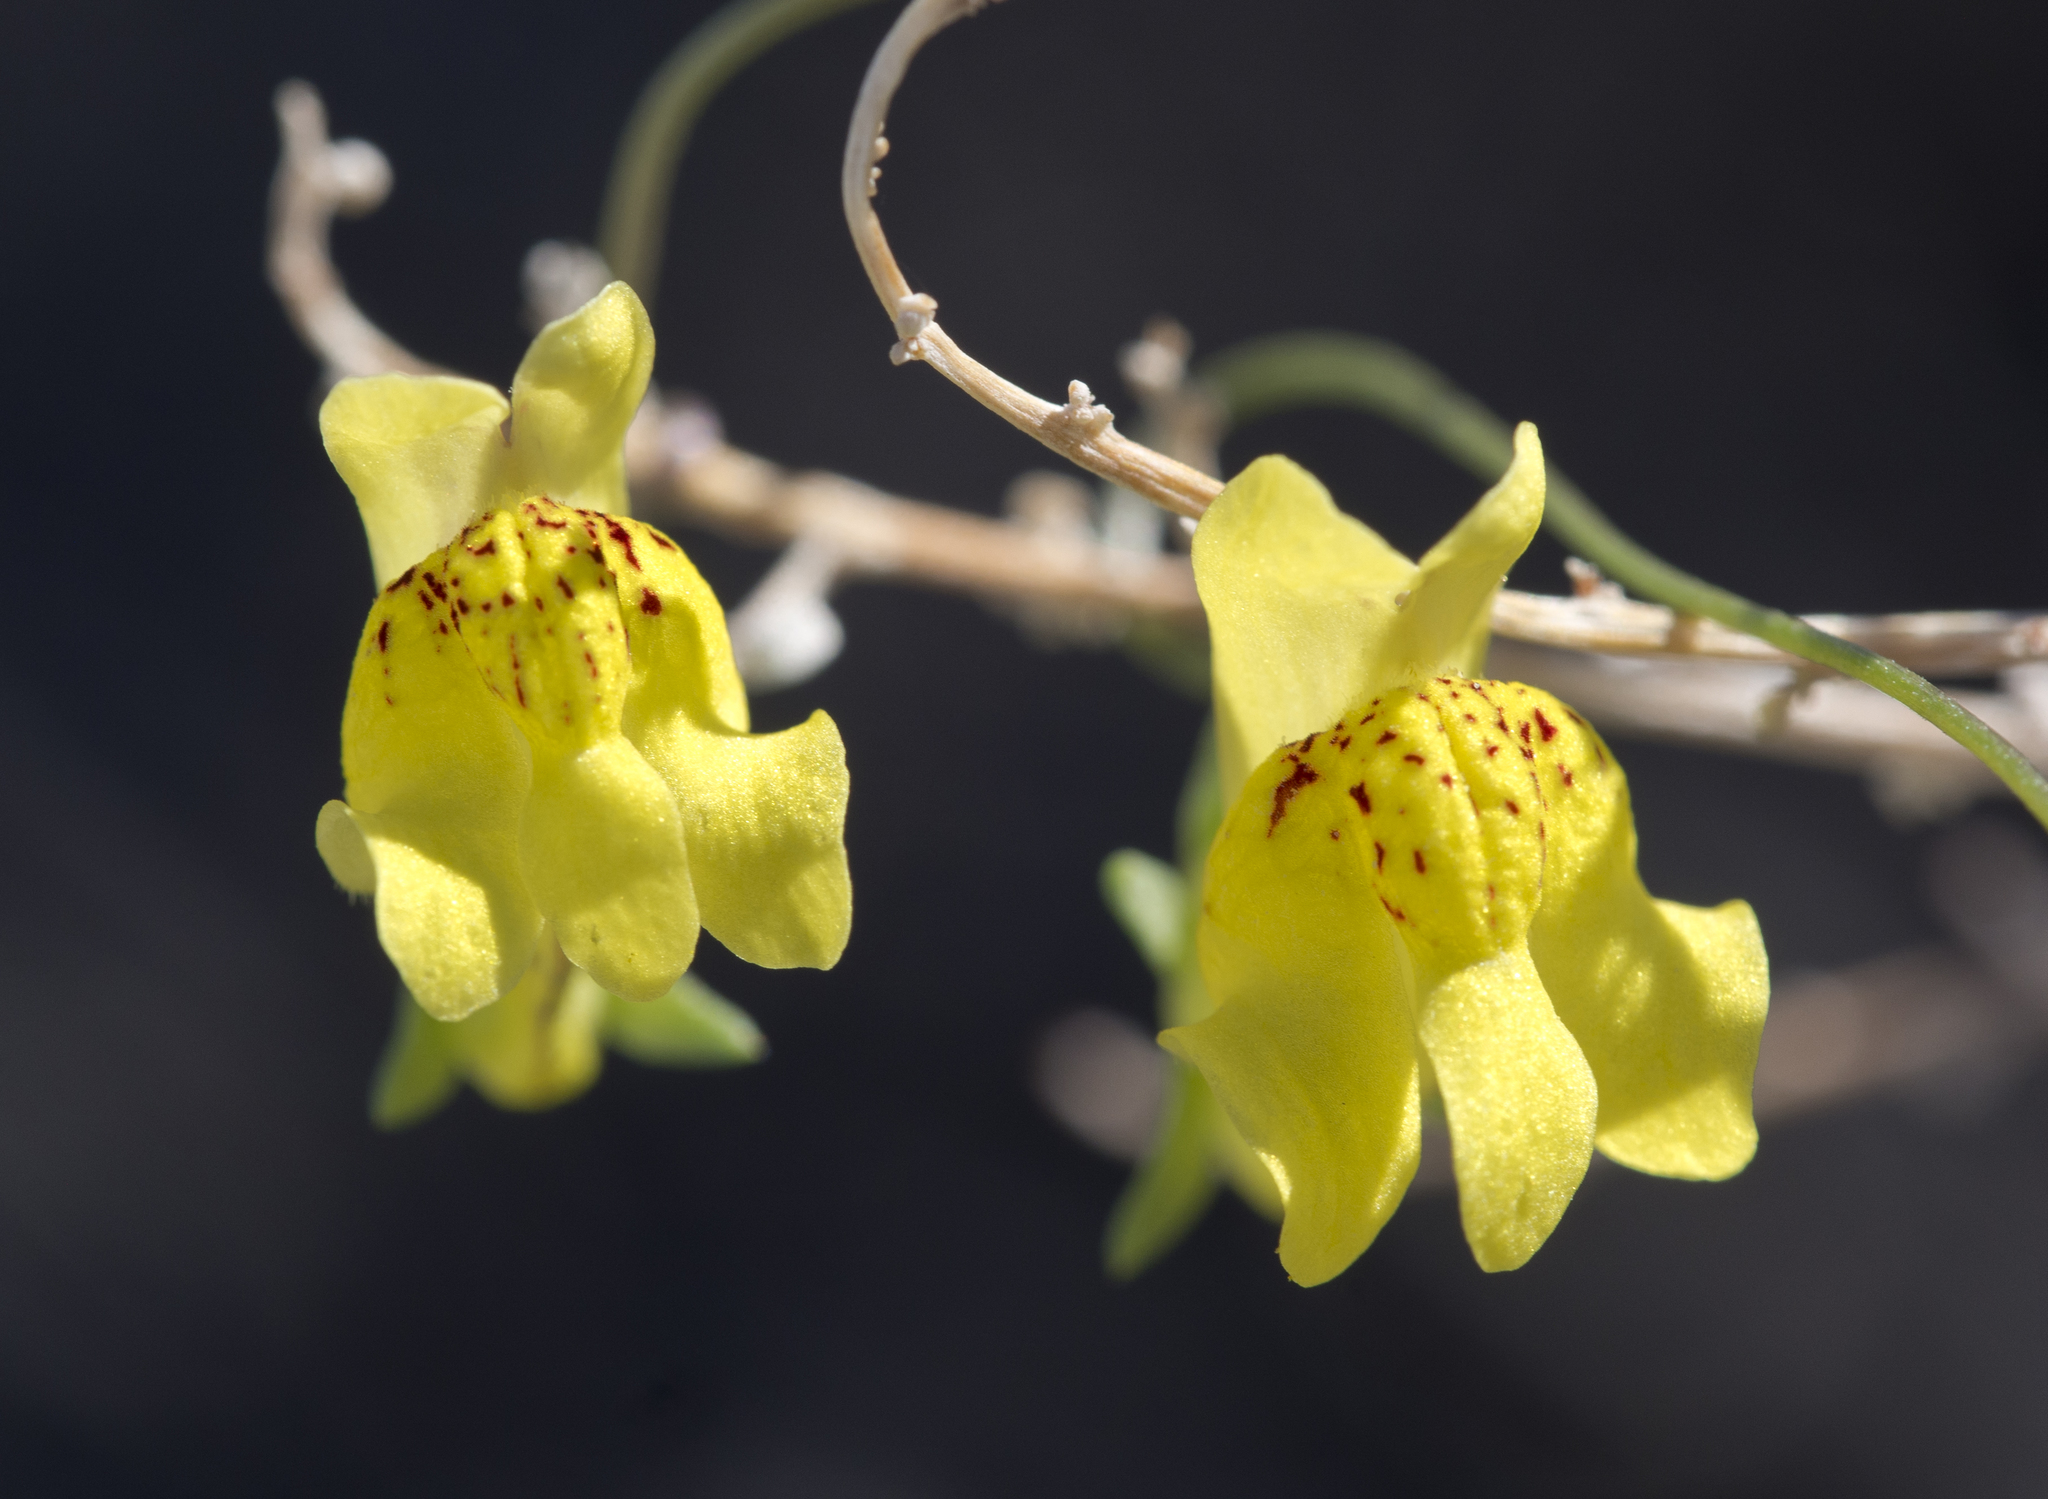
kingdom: Plantae
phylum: Tracheophyta
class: Magnoliopsida
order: Lamiales
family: Plantaginaceae
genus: Neogaerrhinum
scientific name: Neogaerrhinum filipes
